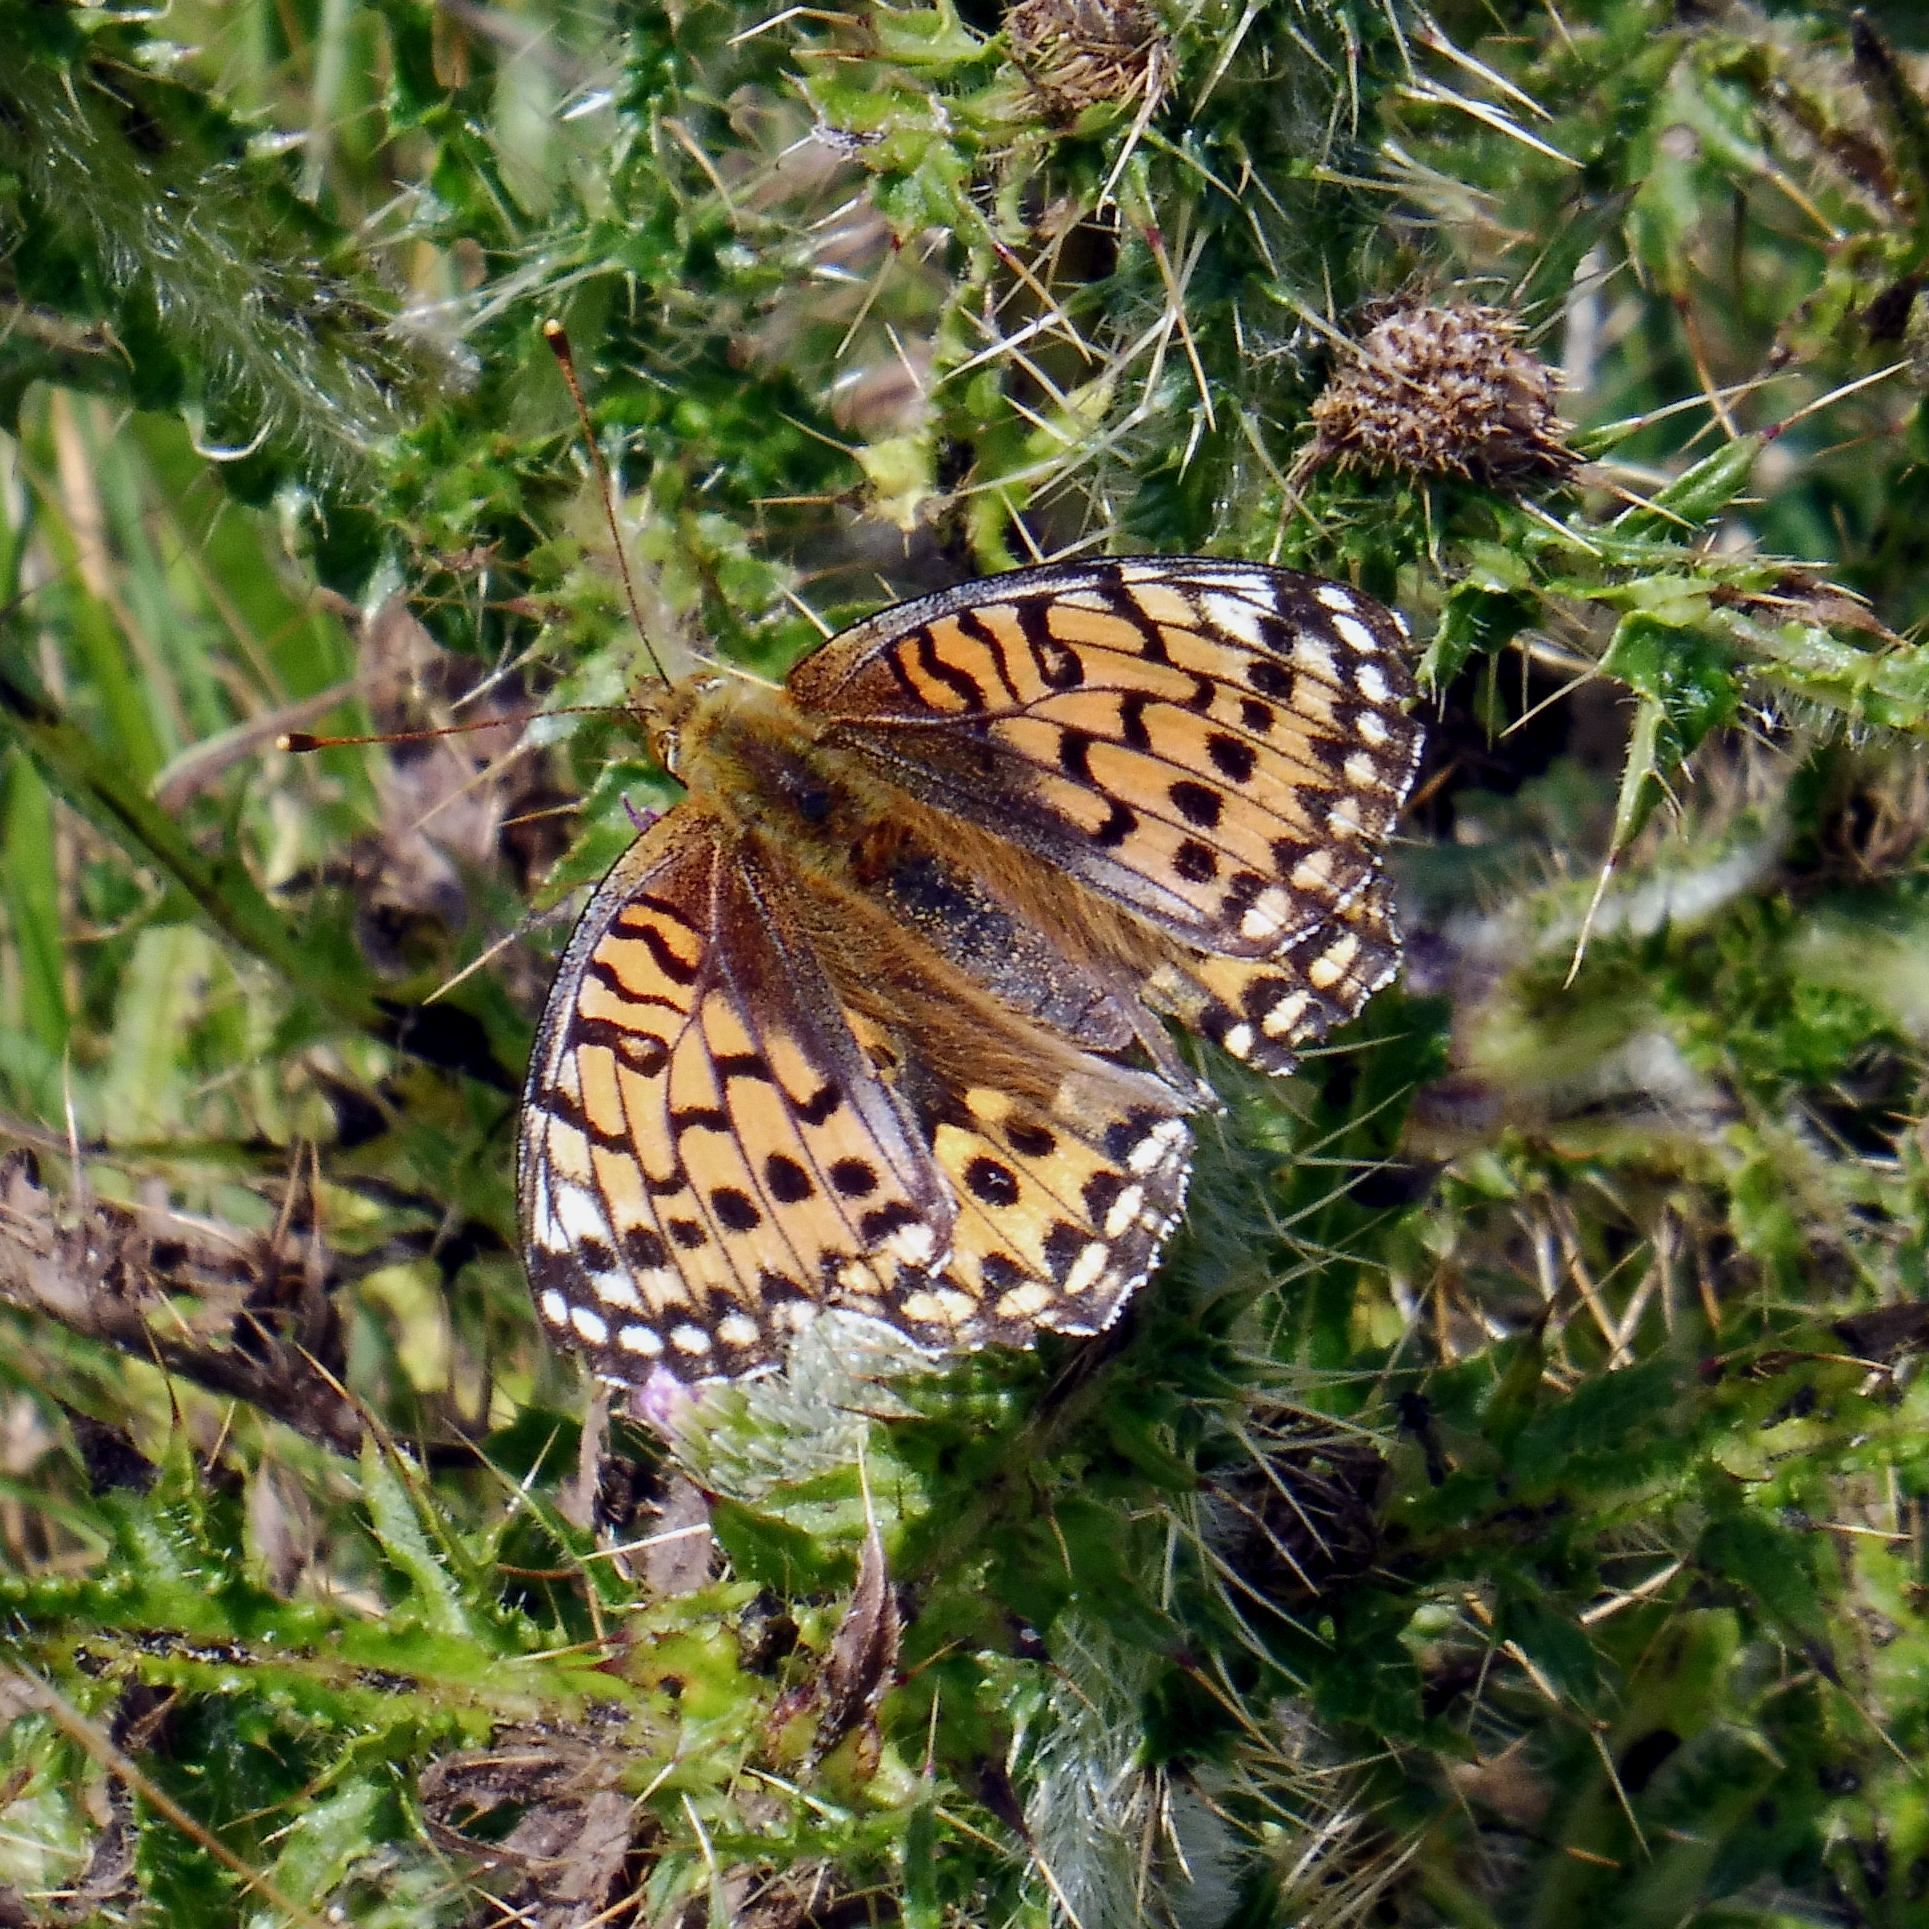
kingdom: Animalia
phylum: Arthropoda
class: Insecta
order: Lepidoptera
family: Nymphalidae
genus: Speyeria
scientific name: Speyeria aglaja
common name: Dark green fritillary
